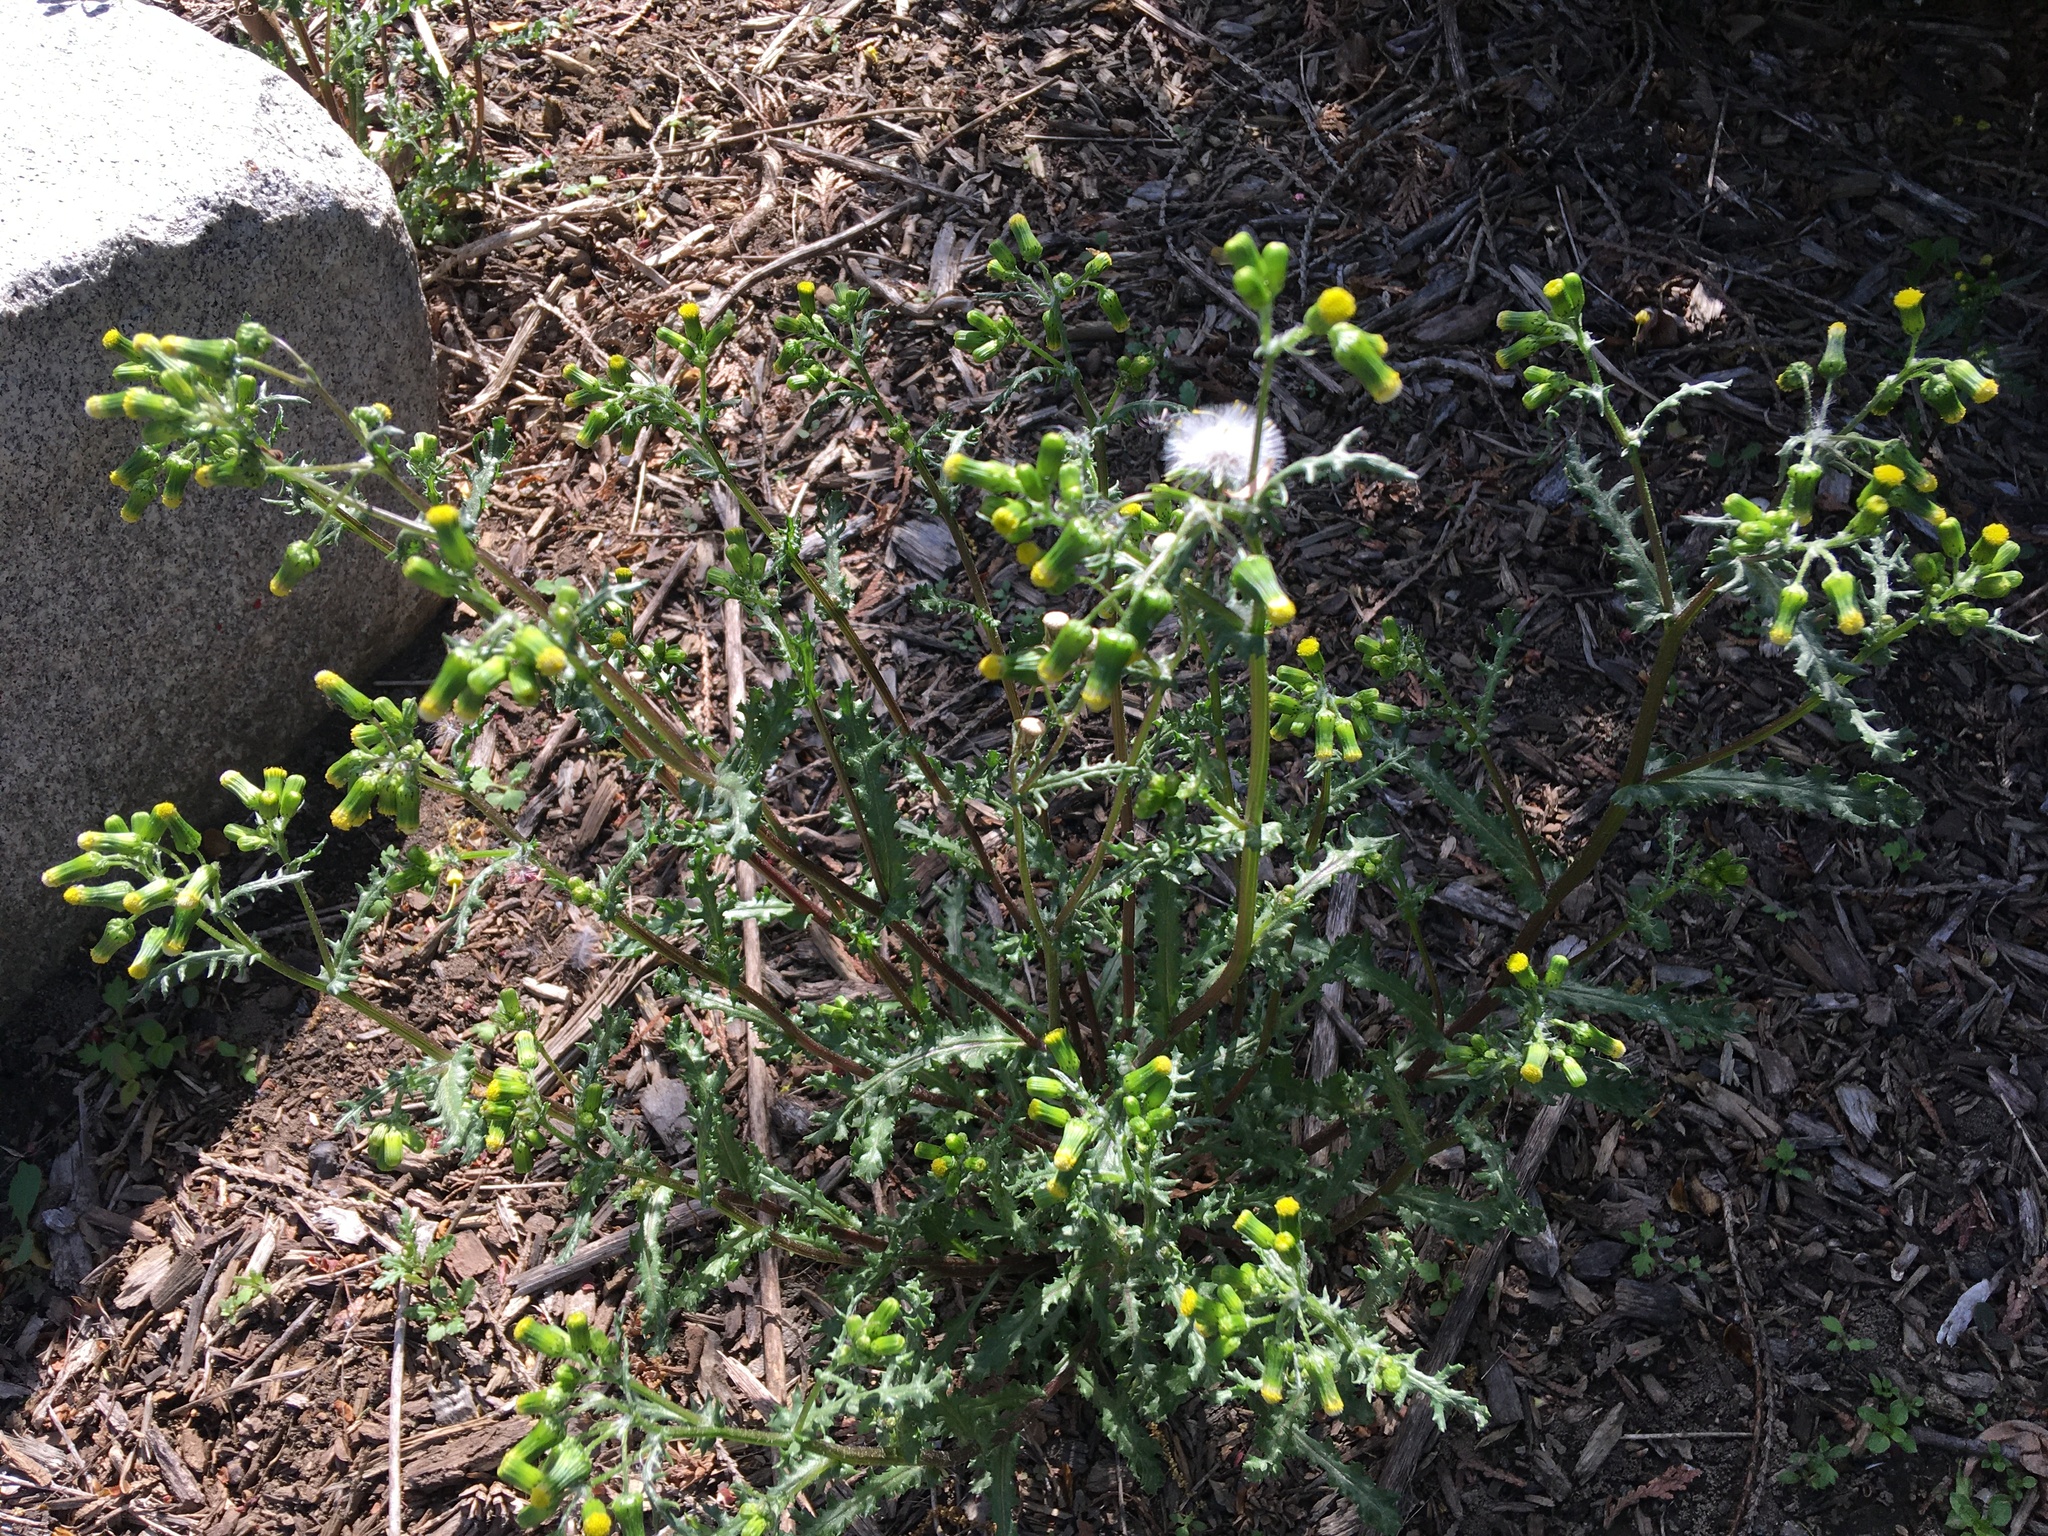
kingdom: Plantae
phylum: Tracheophyta
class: Magnoliopsida
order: Asterales
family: Asteraceae
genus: Senecio
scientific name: Senecio vulgaris
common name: Old-man-in-the-spring
